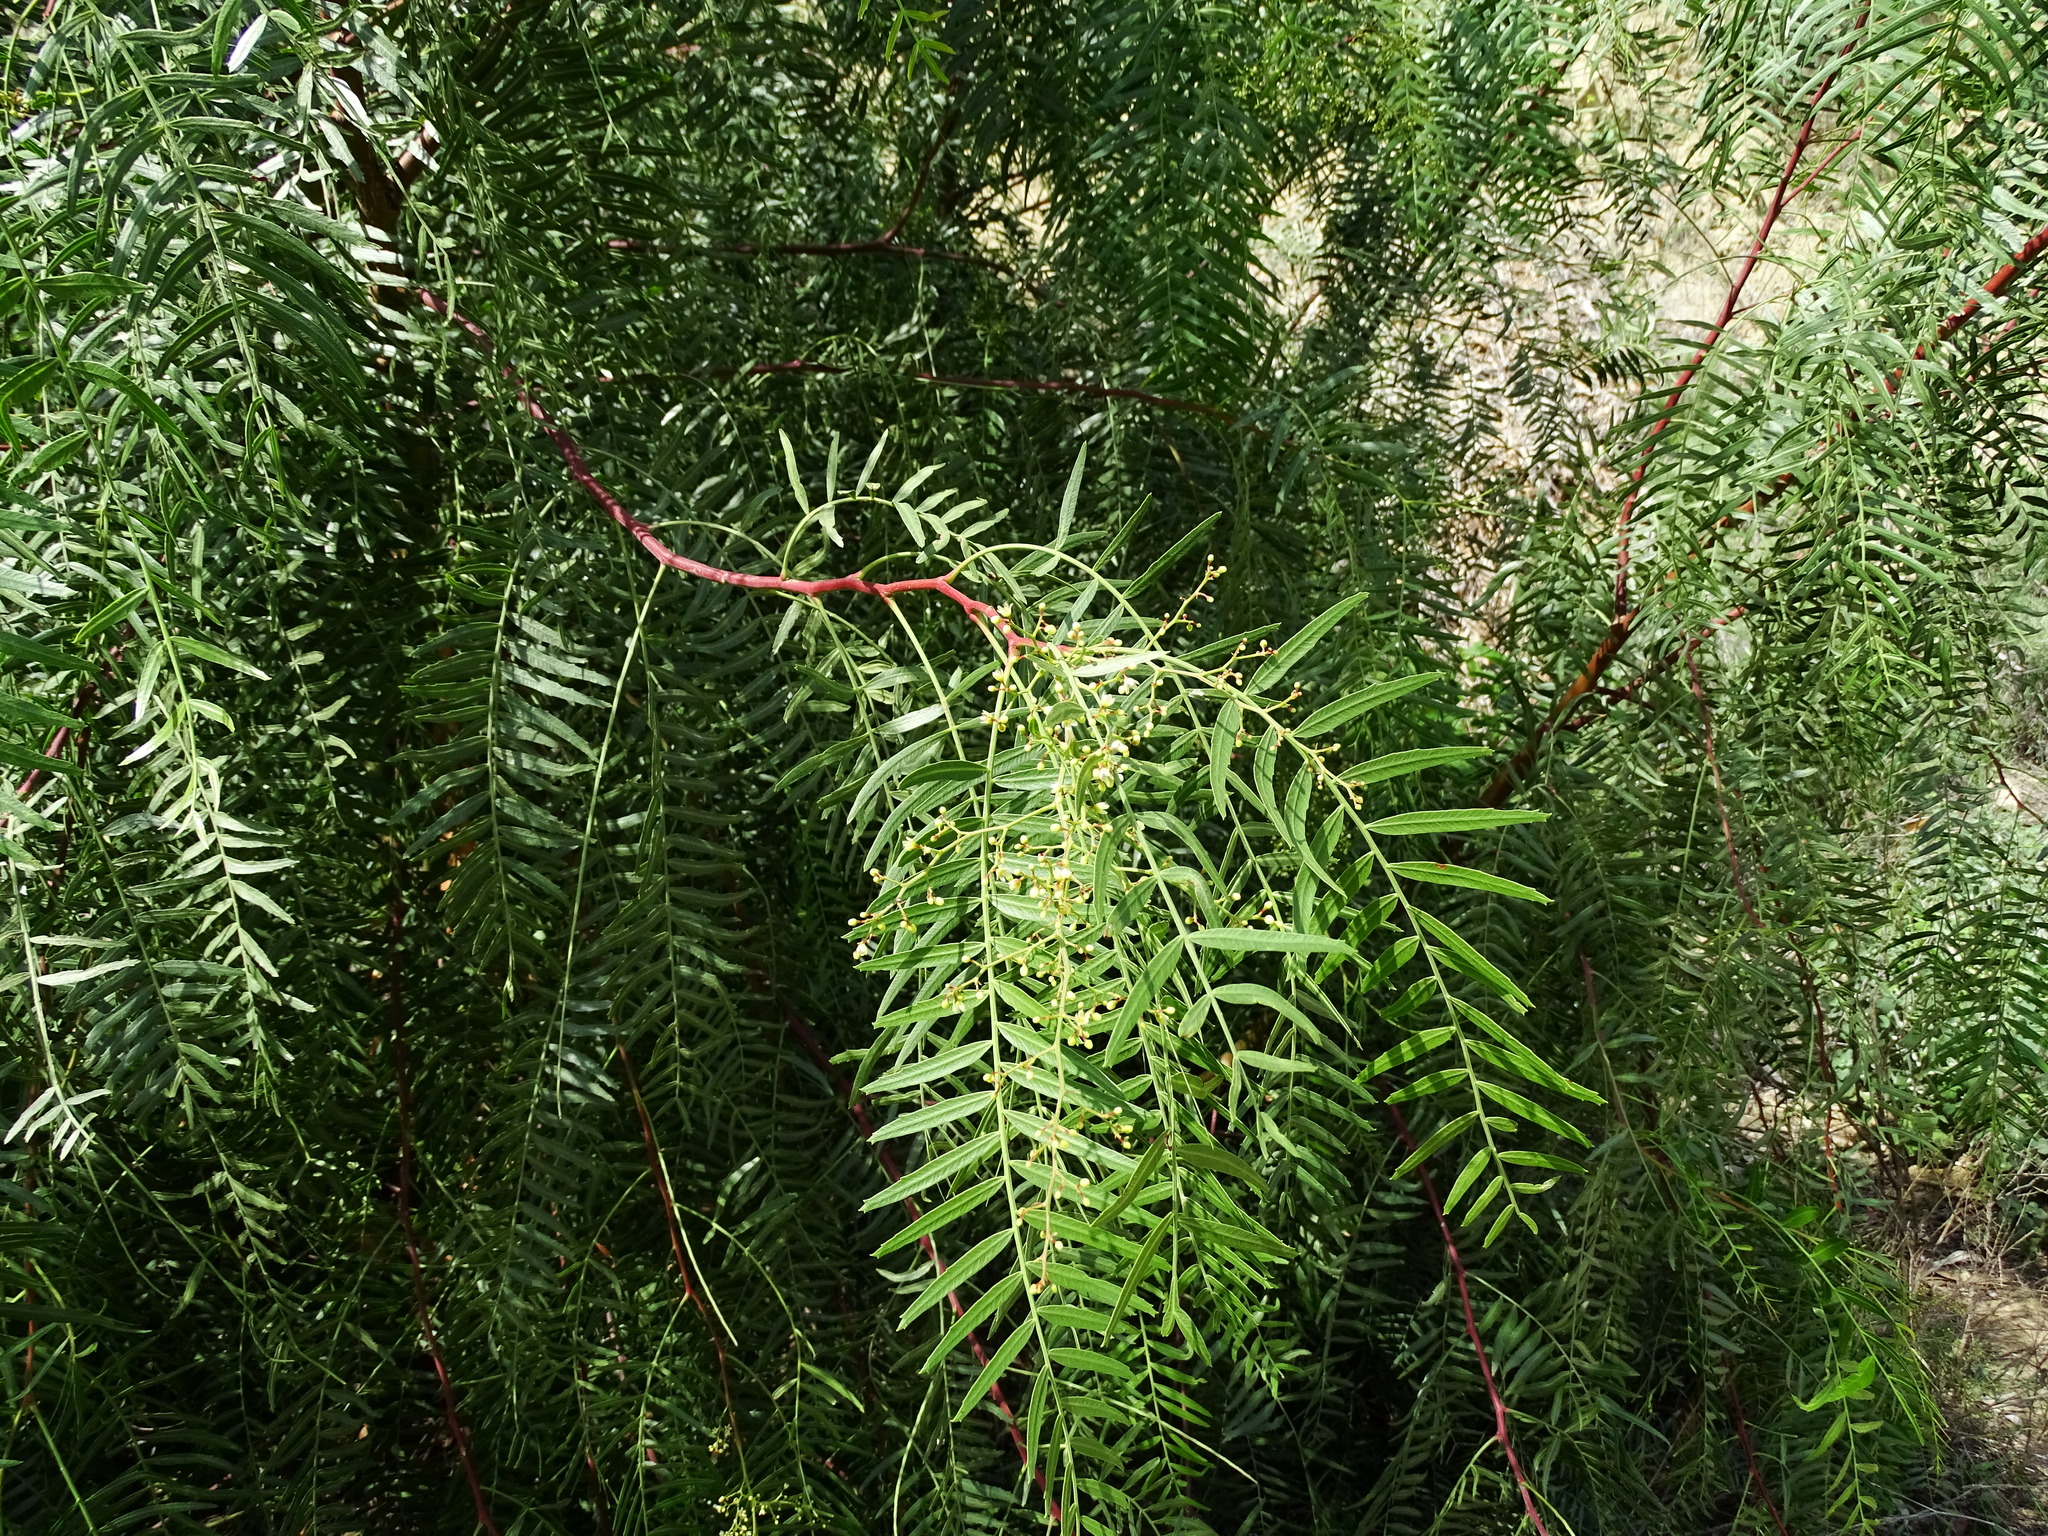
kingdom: Plantae
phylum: Tracheophyta
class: Magnoliopsida
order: Sapindales
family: Anacardiaceae
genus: Schinus
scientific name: Schinus molle
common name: Peruvian peppertree
